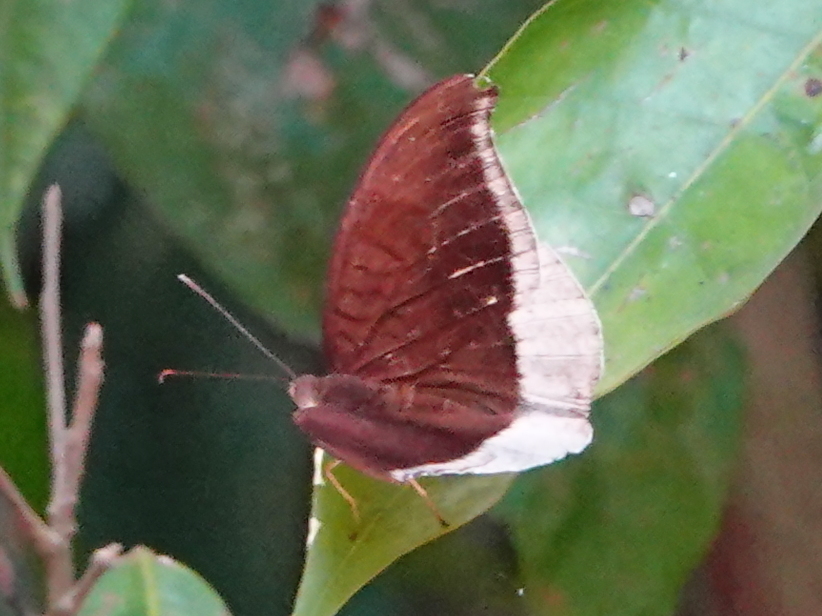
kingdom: Animalia
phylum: Arthropoda
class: Insecta
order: Lepidoptera
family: Nymphalidae
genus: Tanaecia
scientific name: Tanaecia lepidea
